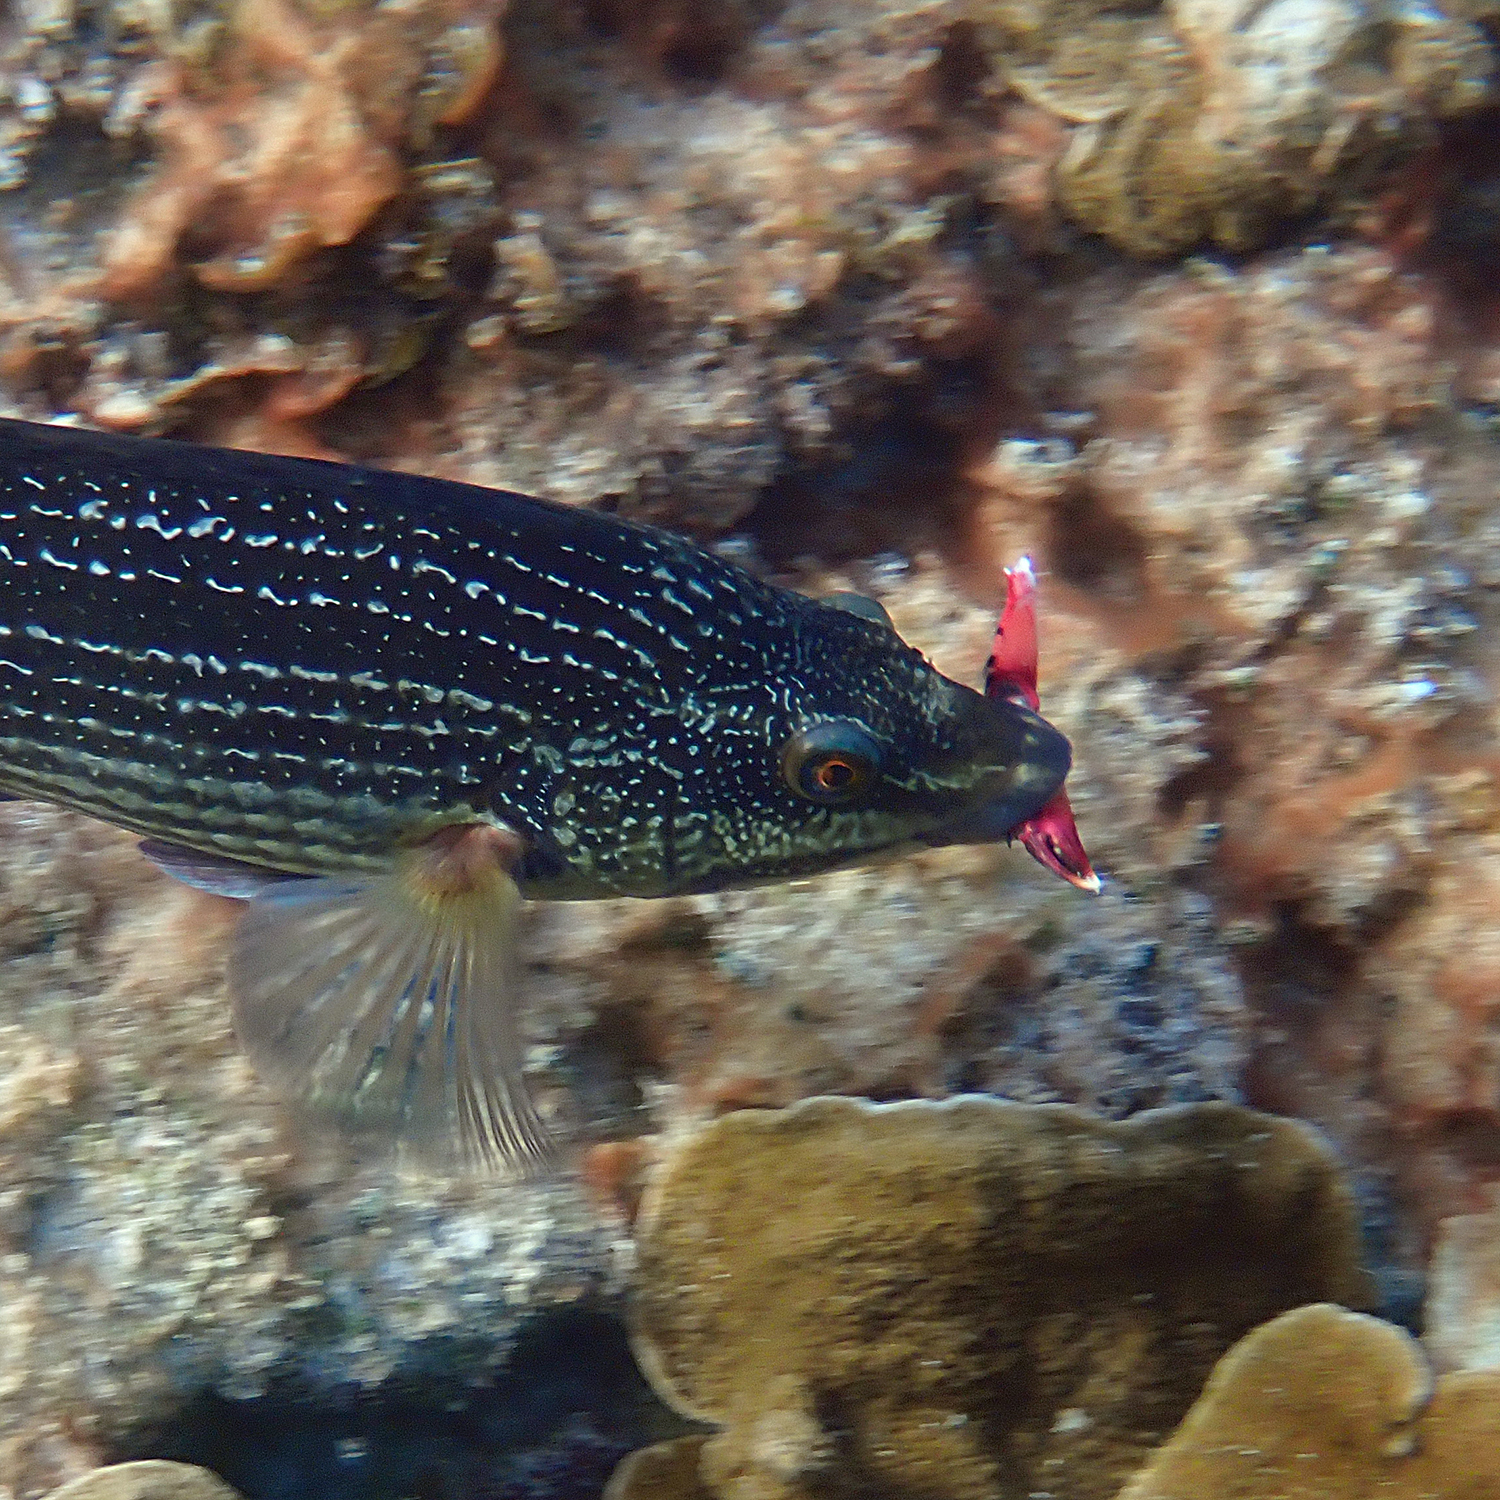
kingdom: Animalia
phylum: Chordata
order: Perciformes
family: Labridae
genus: Notolabrus
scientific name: Notolabrus inscriptus
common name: Green wrasse
